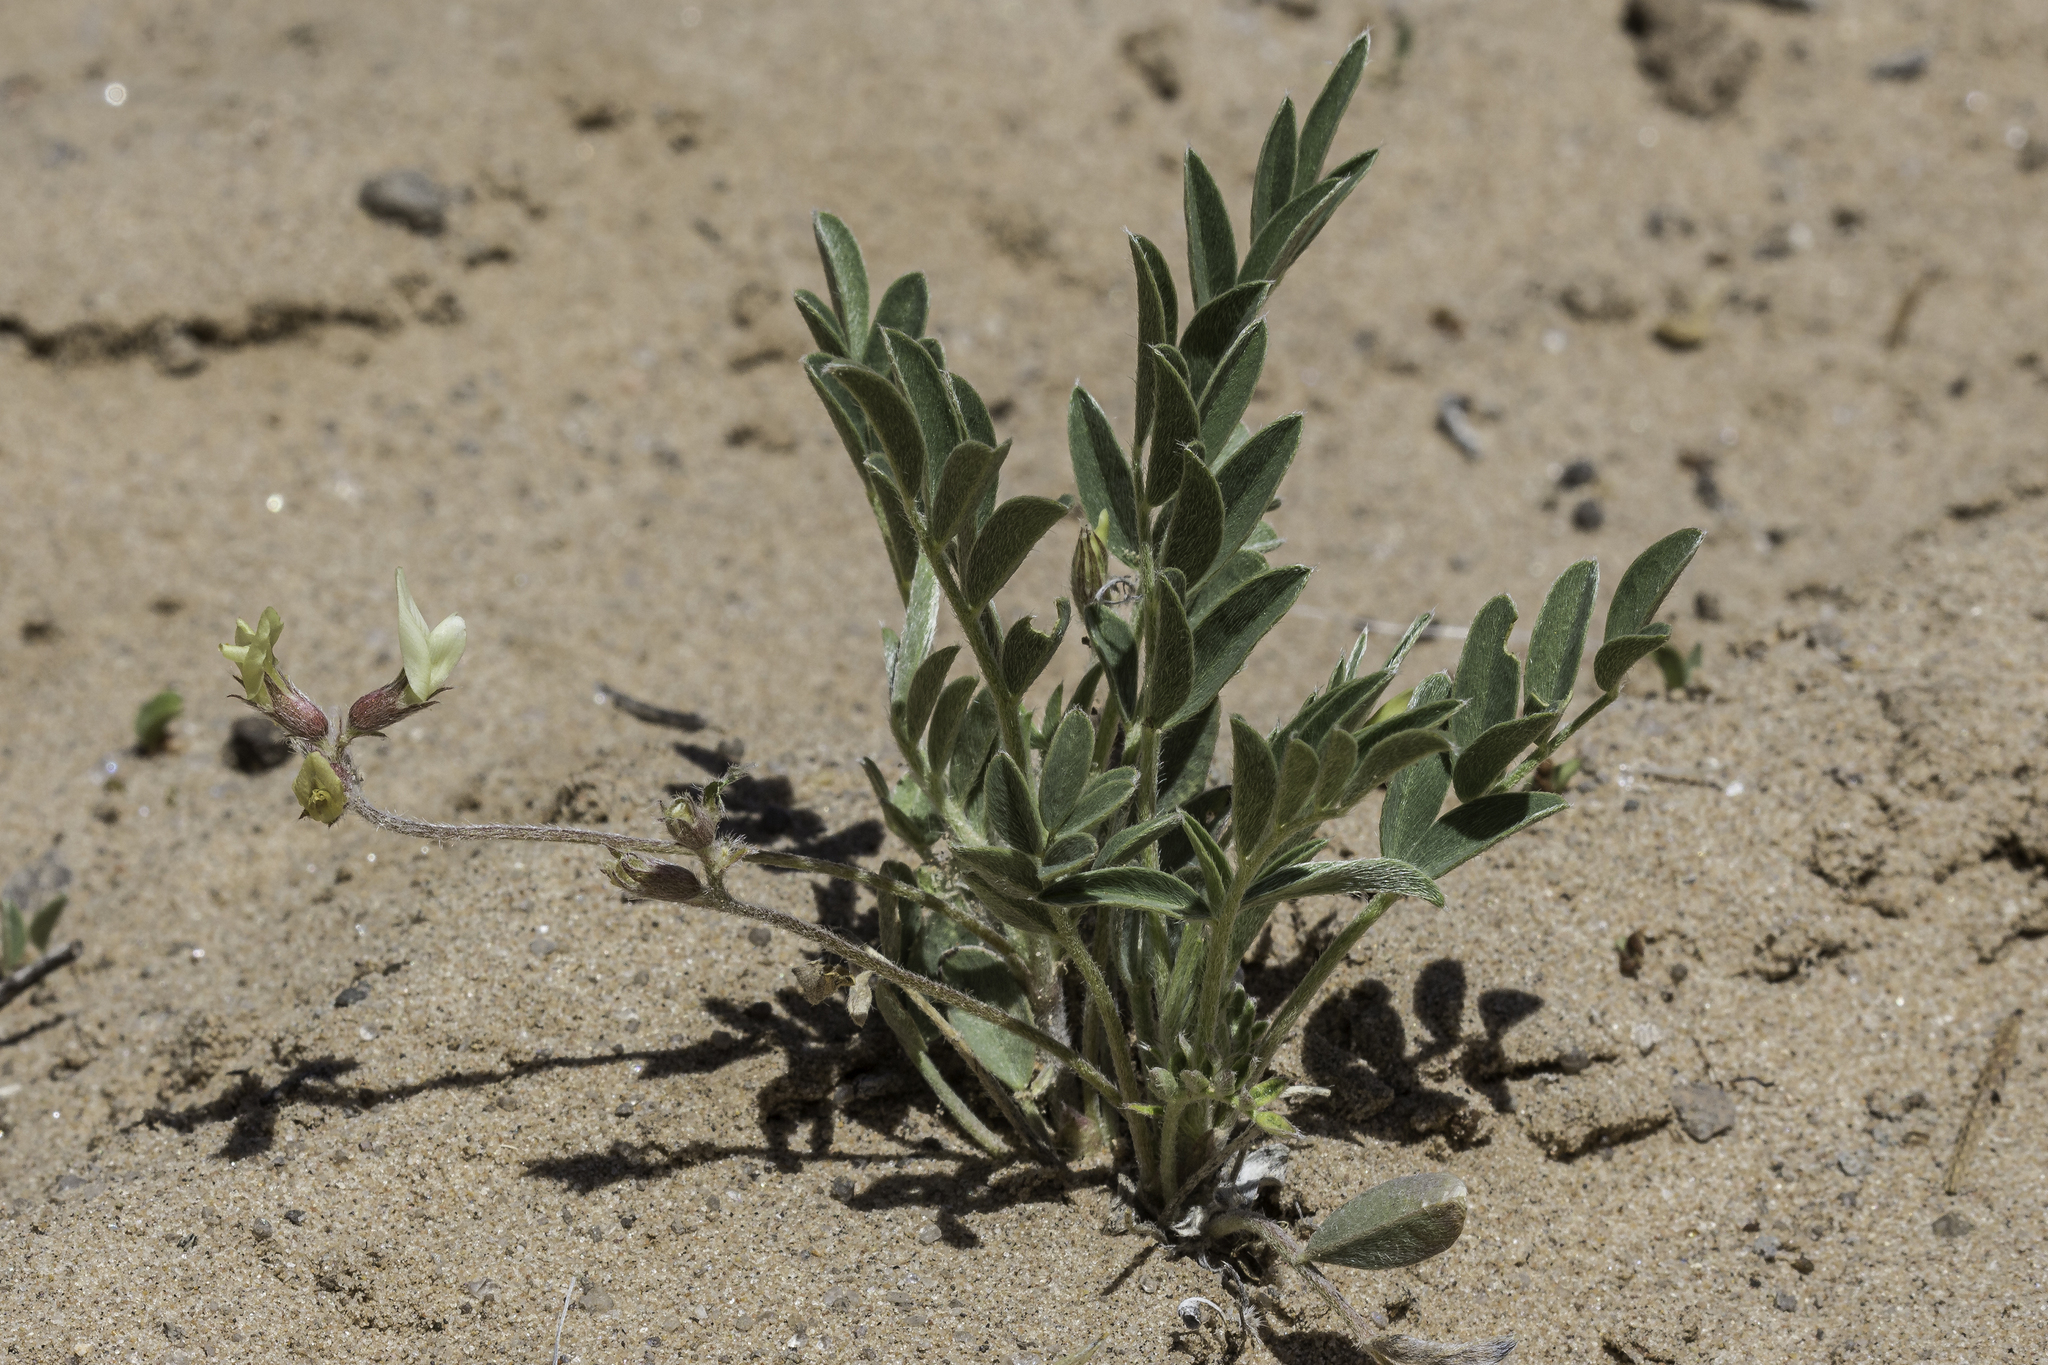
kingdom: Plantae
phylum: Tracheophyta
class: Magnoliopsida
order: Fabales
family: Fabaceae
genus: Astragalus
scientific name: Astragalus lotiflorus
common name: Lotus milk-vetch
